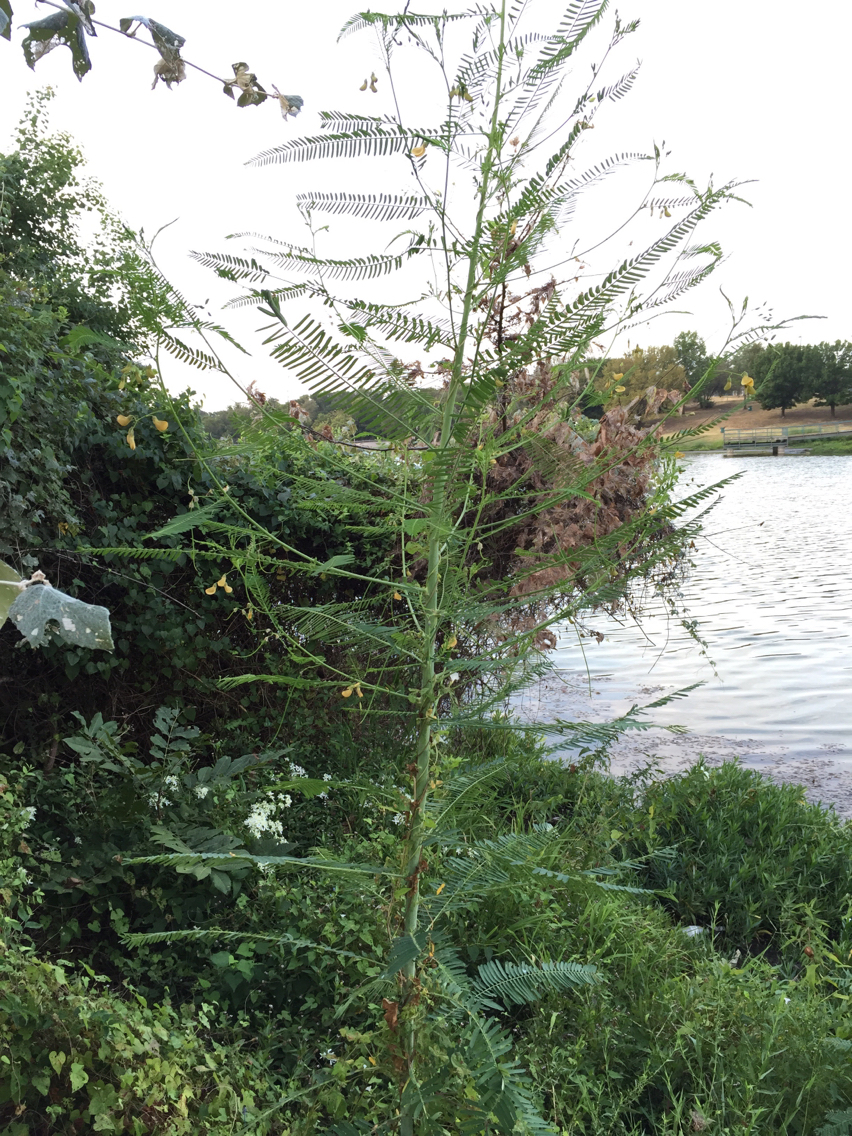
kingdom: Plantae
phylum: Tracheophyta
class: Magnoliopsida
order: Fabales
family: Fabaceae
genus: Sesbania
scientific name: Sesbania herbacea
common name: Bigpod sesbania
